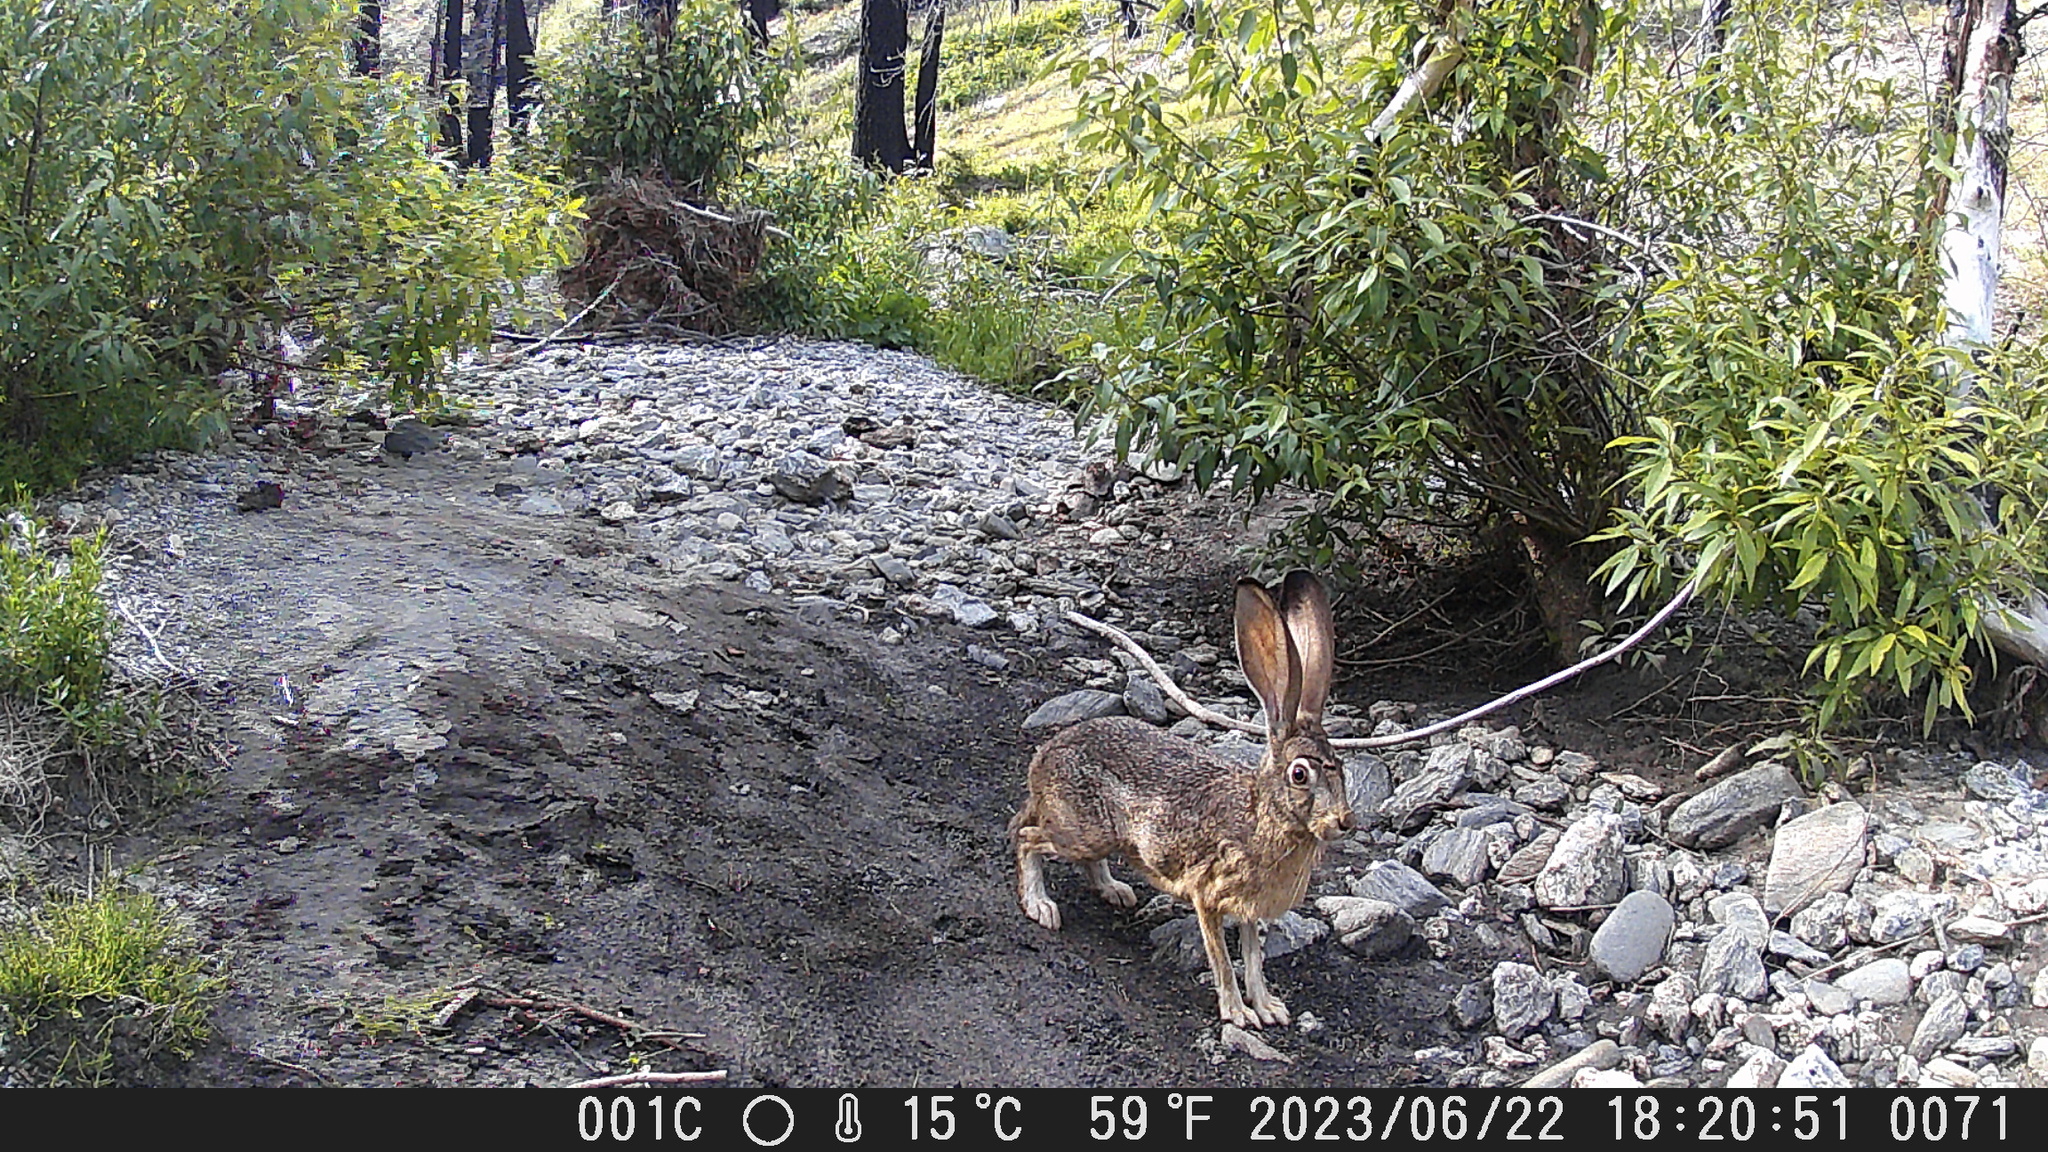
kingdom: Animalia
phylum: Chordata
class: Mammalia
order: Lagomorpha
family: Leporidae
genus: Lepus
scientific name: Lepus californicus
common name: Black-tailed jackrabbit
